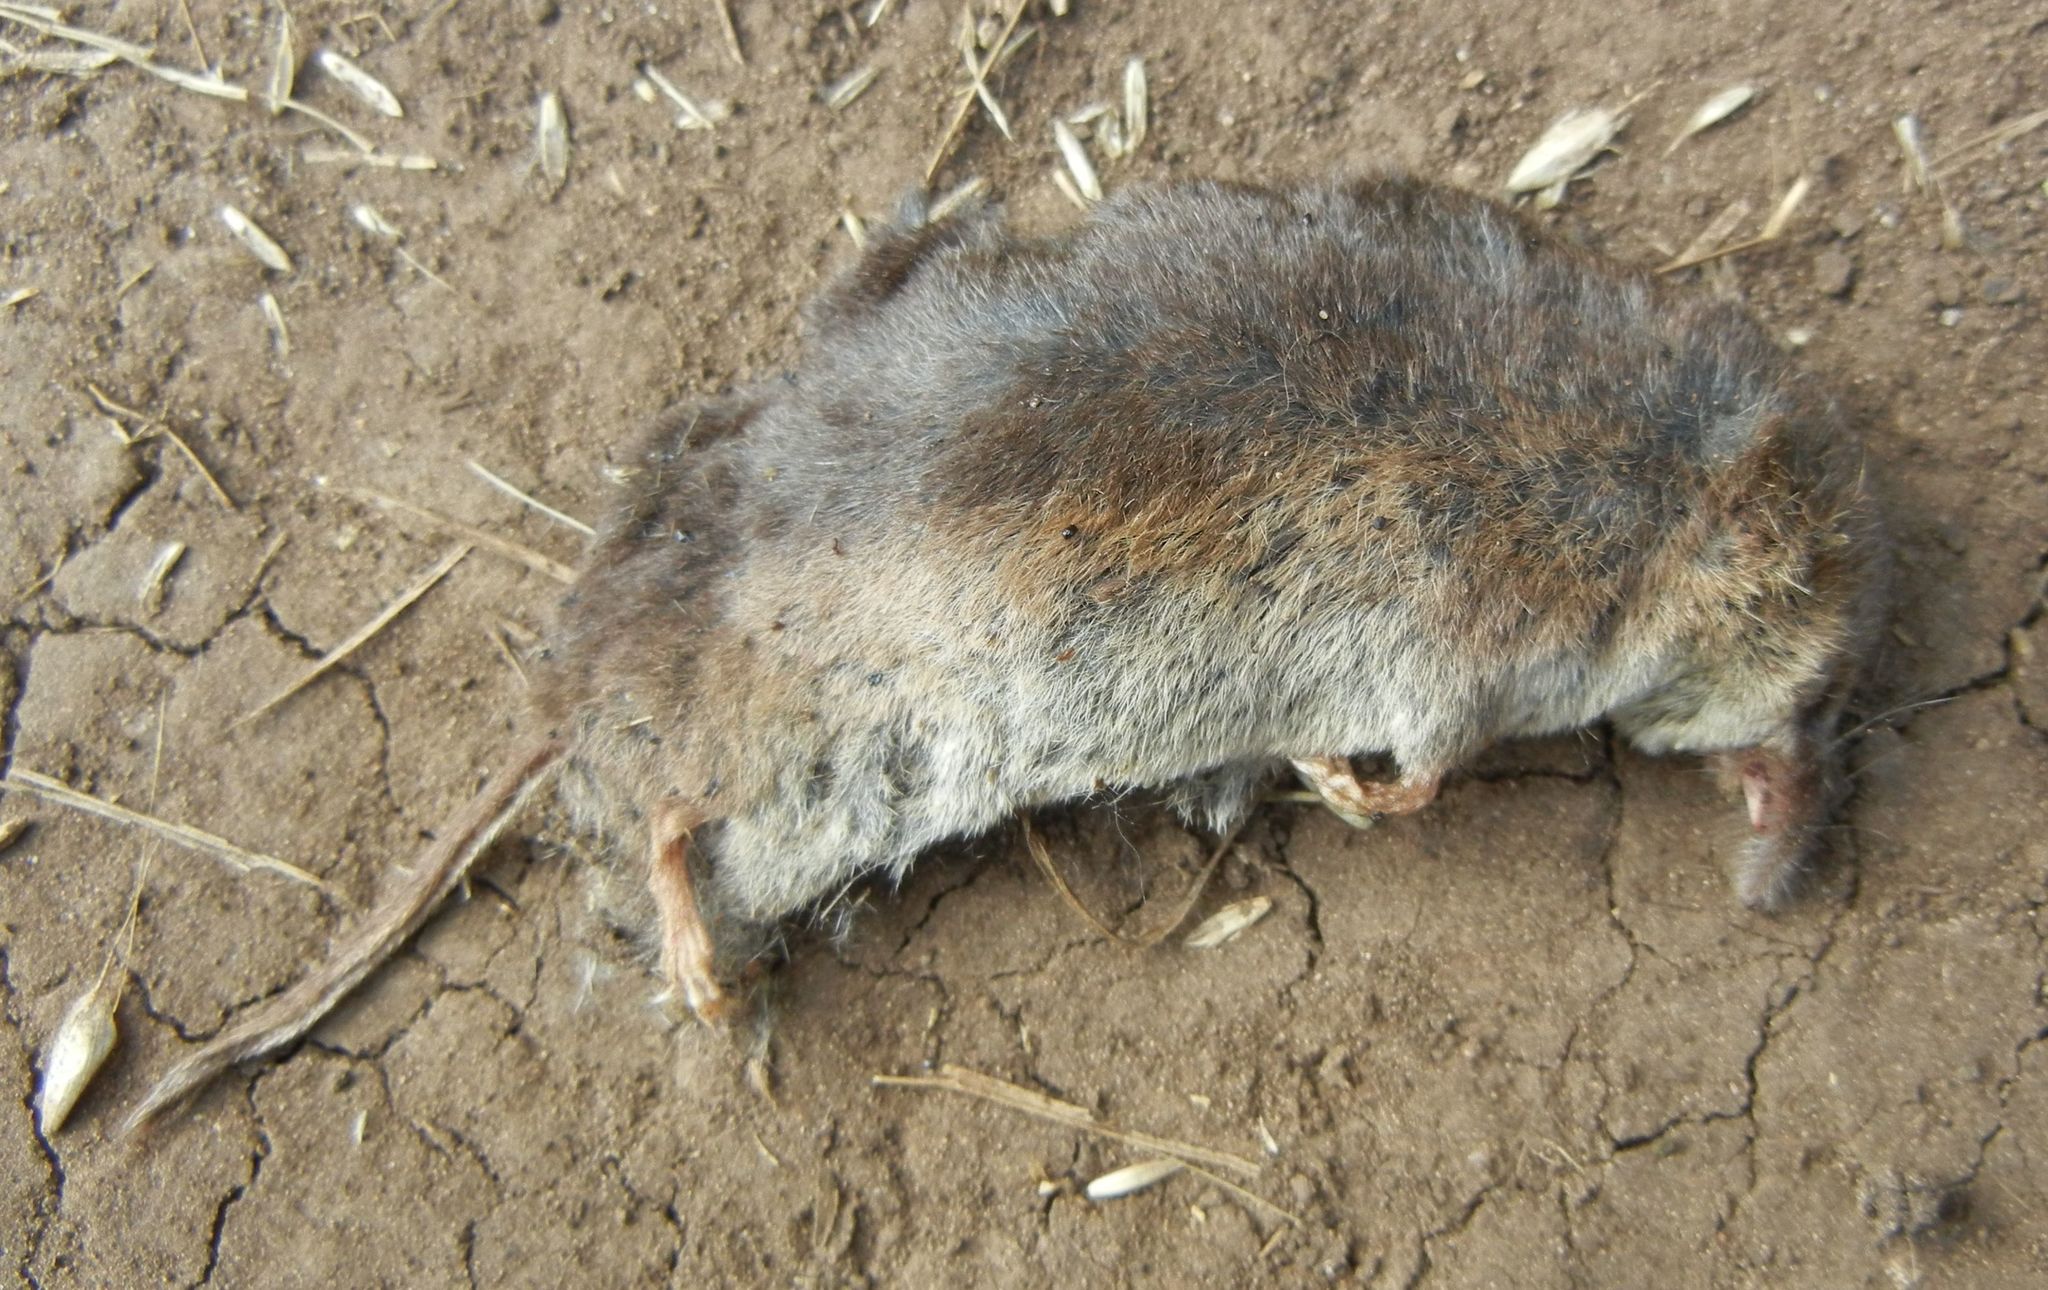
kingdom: Animalia
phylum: Chordata
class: Mammalia
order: Soricomorpha
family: Soricidae
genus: Sorex
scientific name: Sorex araneus
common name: Common shrew
